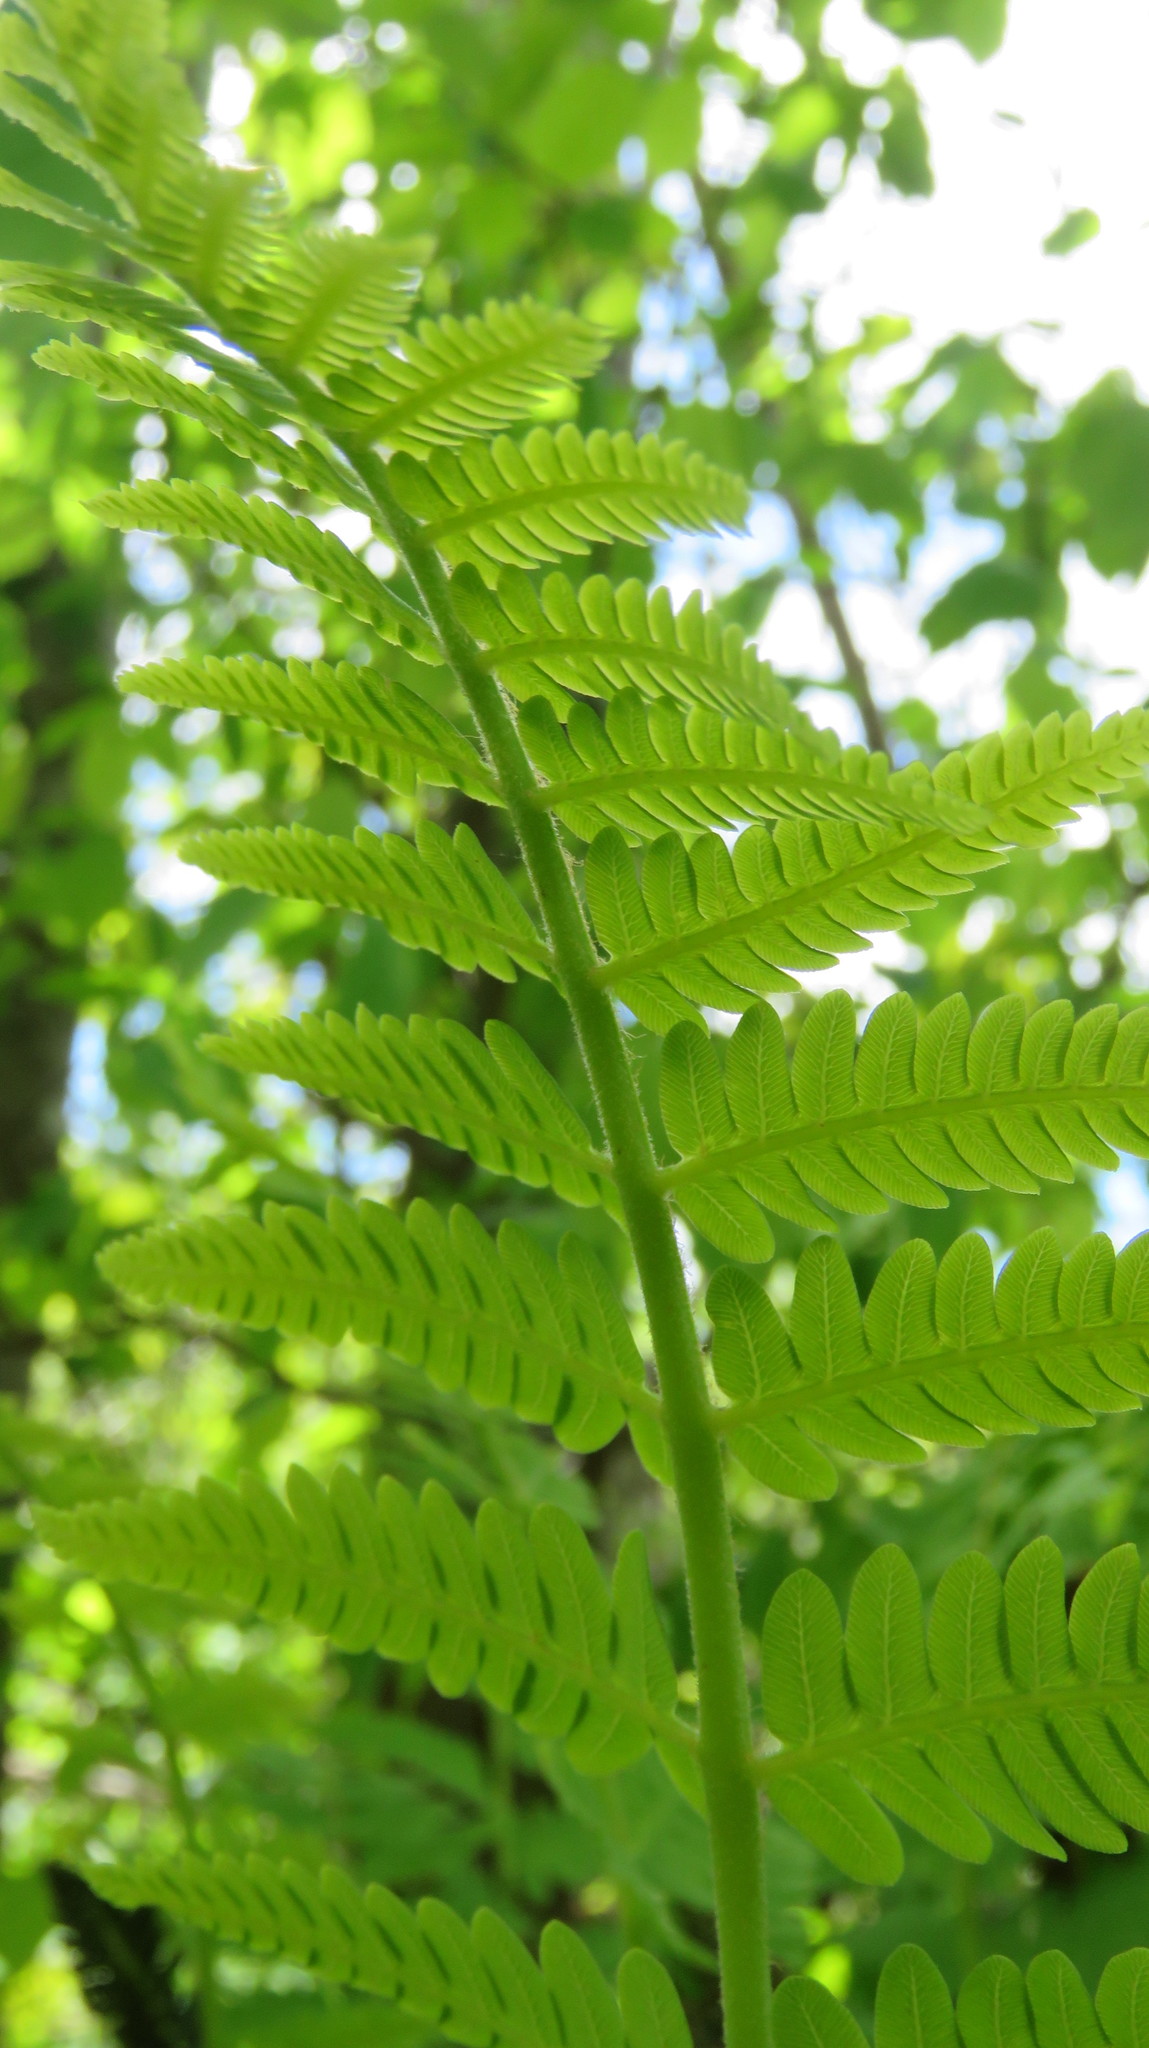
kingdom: Plantae
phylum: Tracheophyta
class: Polypodiopsida
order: Osmundales
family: Osmundaceae
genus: Claytosmunda
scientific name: Claytosmunda claytoniana
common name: Clayton's fern
